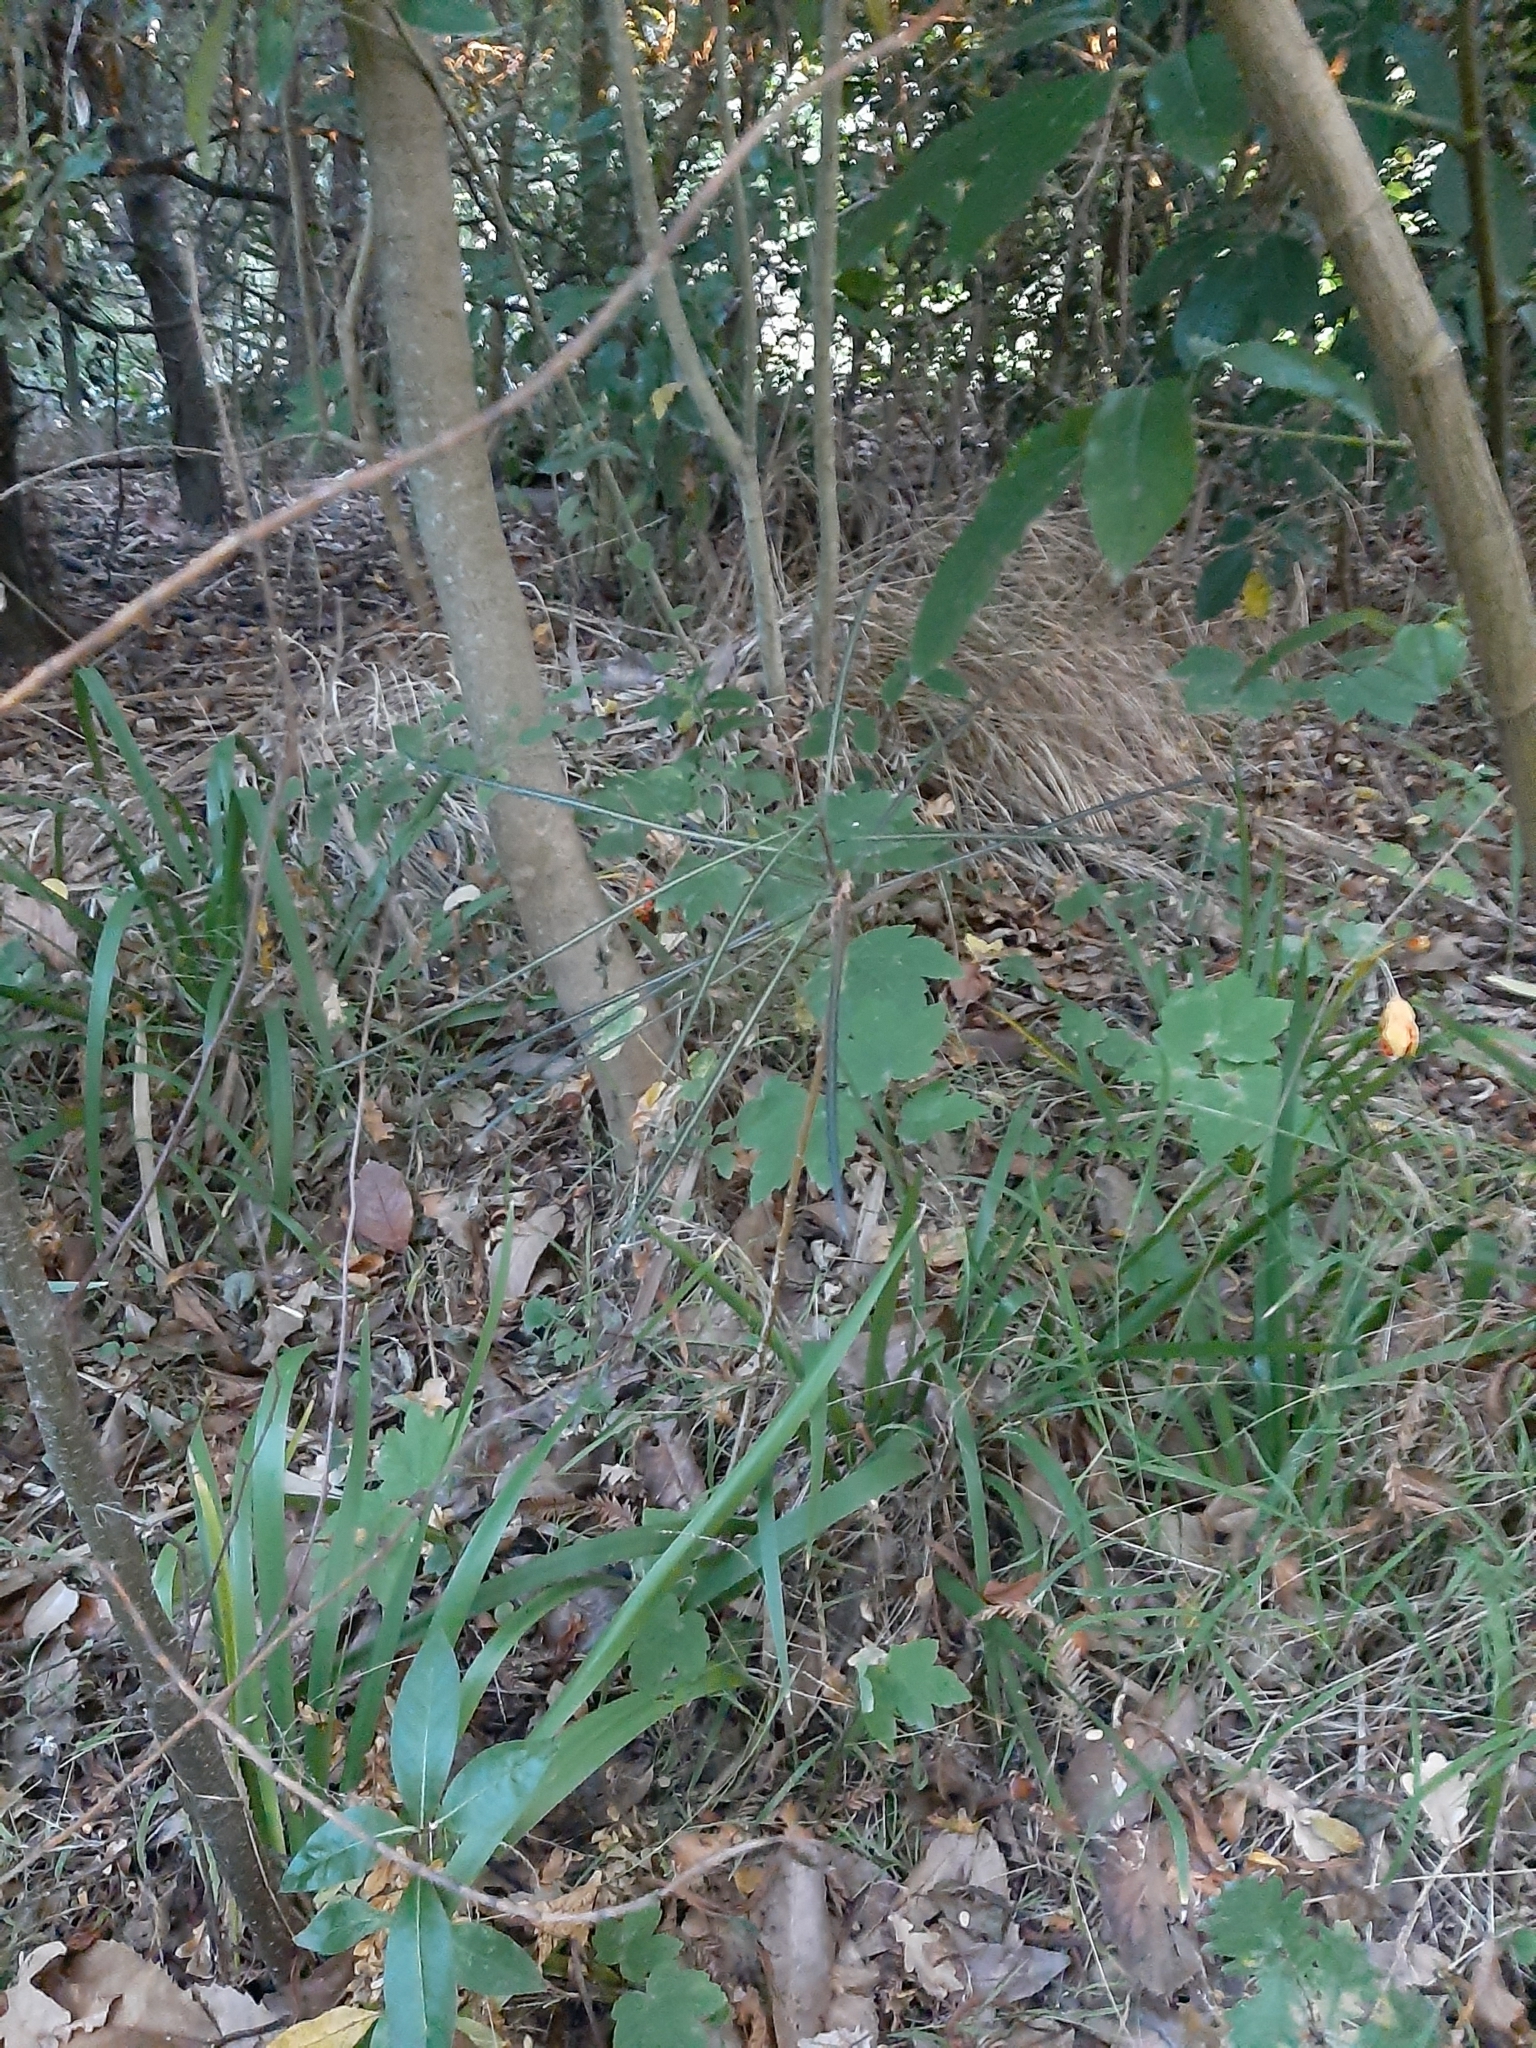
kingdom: Plantae
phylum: Tracheophyta
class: Magnoliopsida
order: Apiales
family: Araliaceae
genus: Pseudopanax
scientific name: Pseudopanax crassifolius
